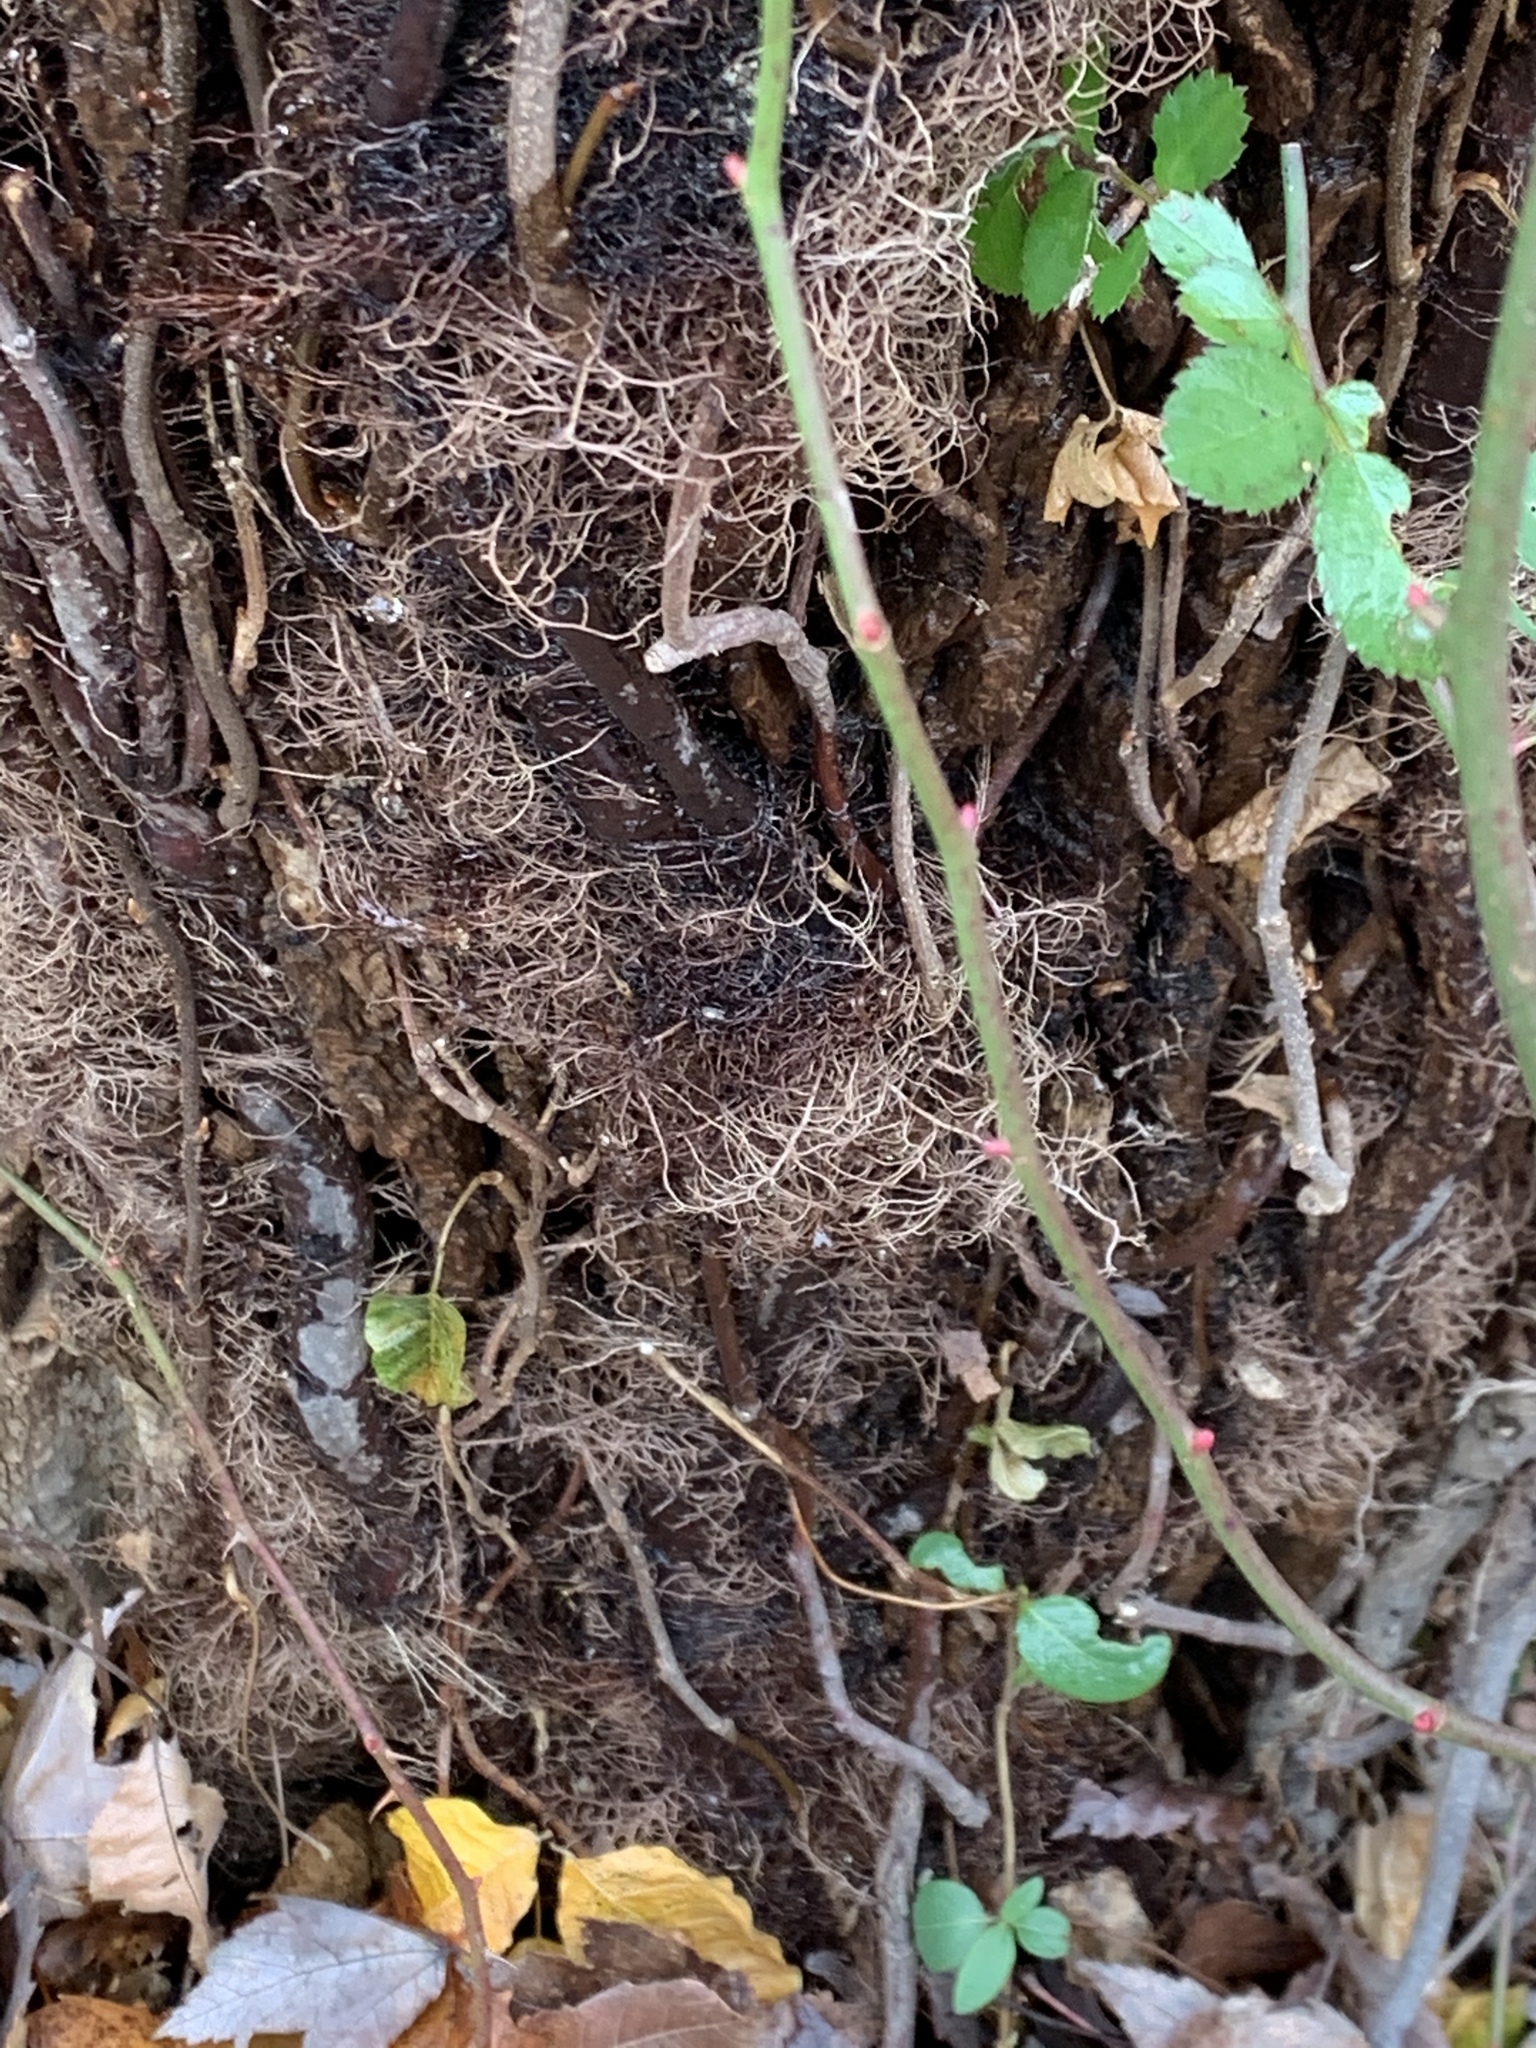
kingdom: Plantae
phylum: Tracheophyta
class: Magnoliopsida
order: Sapindales
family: Anacardiaceae
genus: Toxicodendron
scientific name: Toxicodendron radicans
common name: Poison ivy
